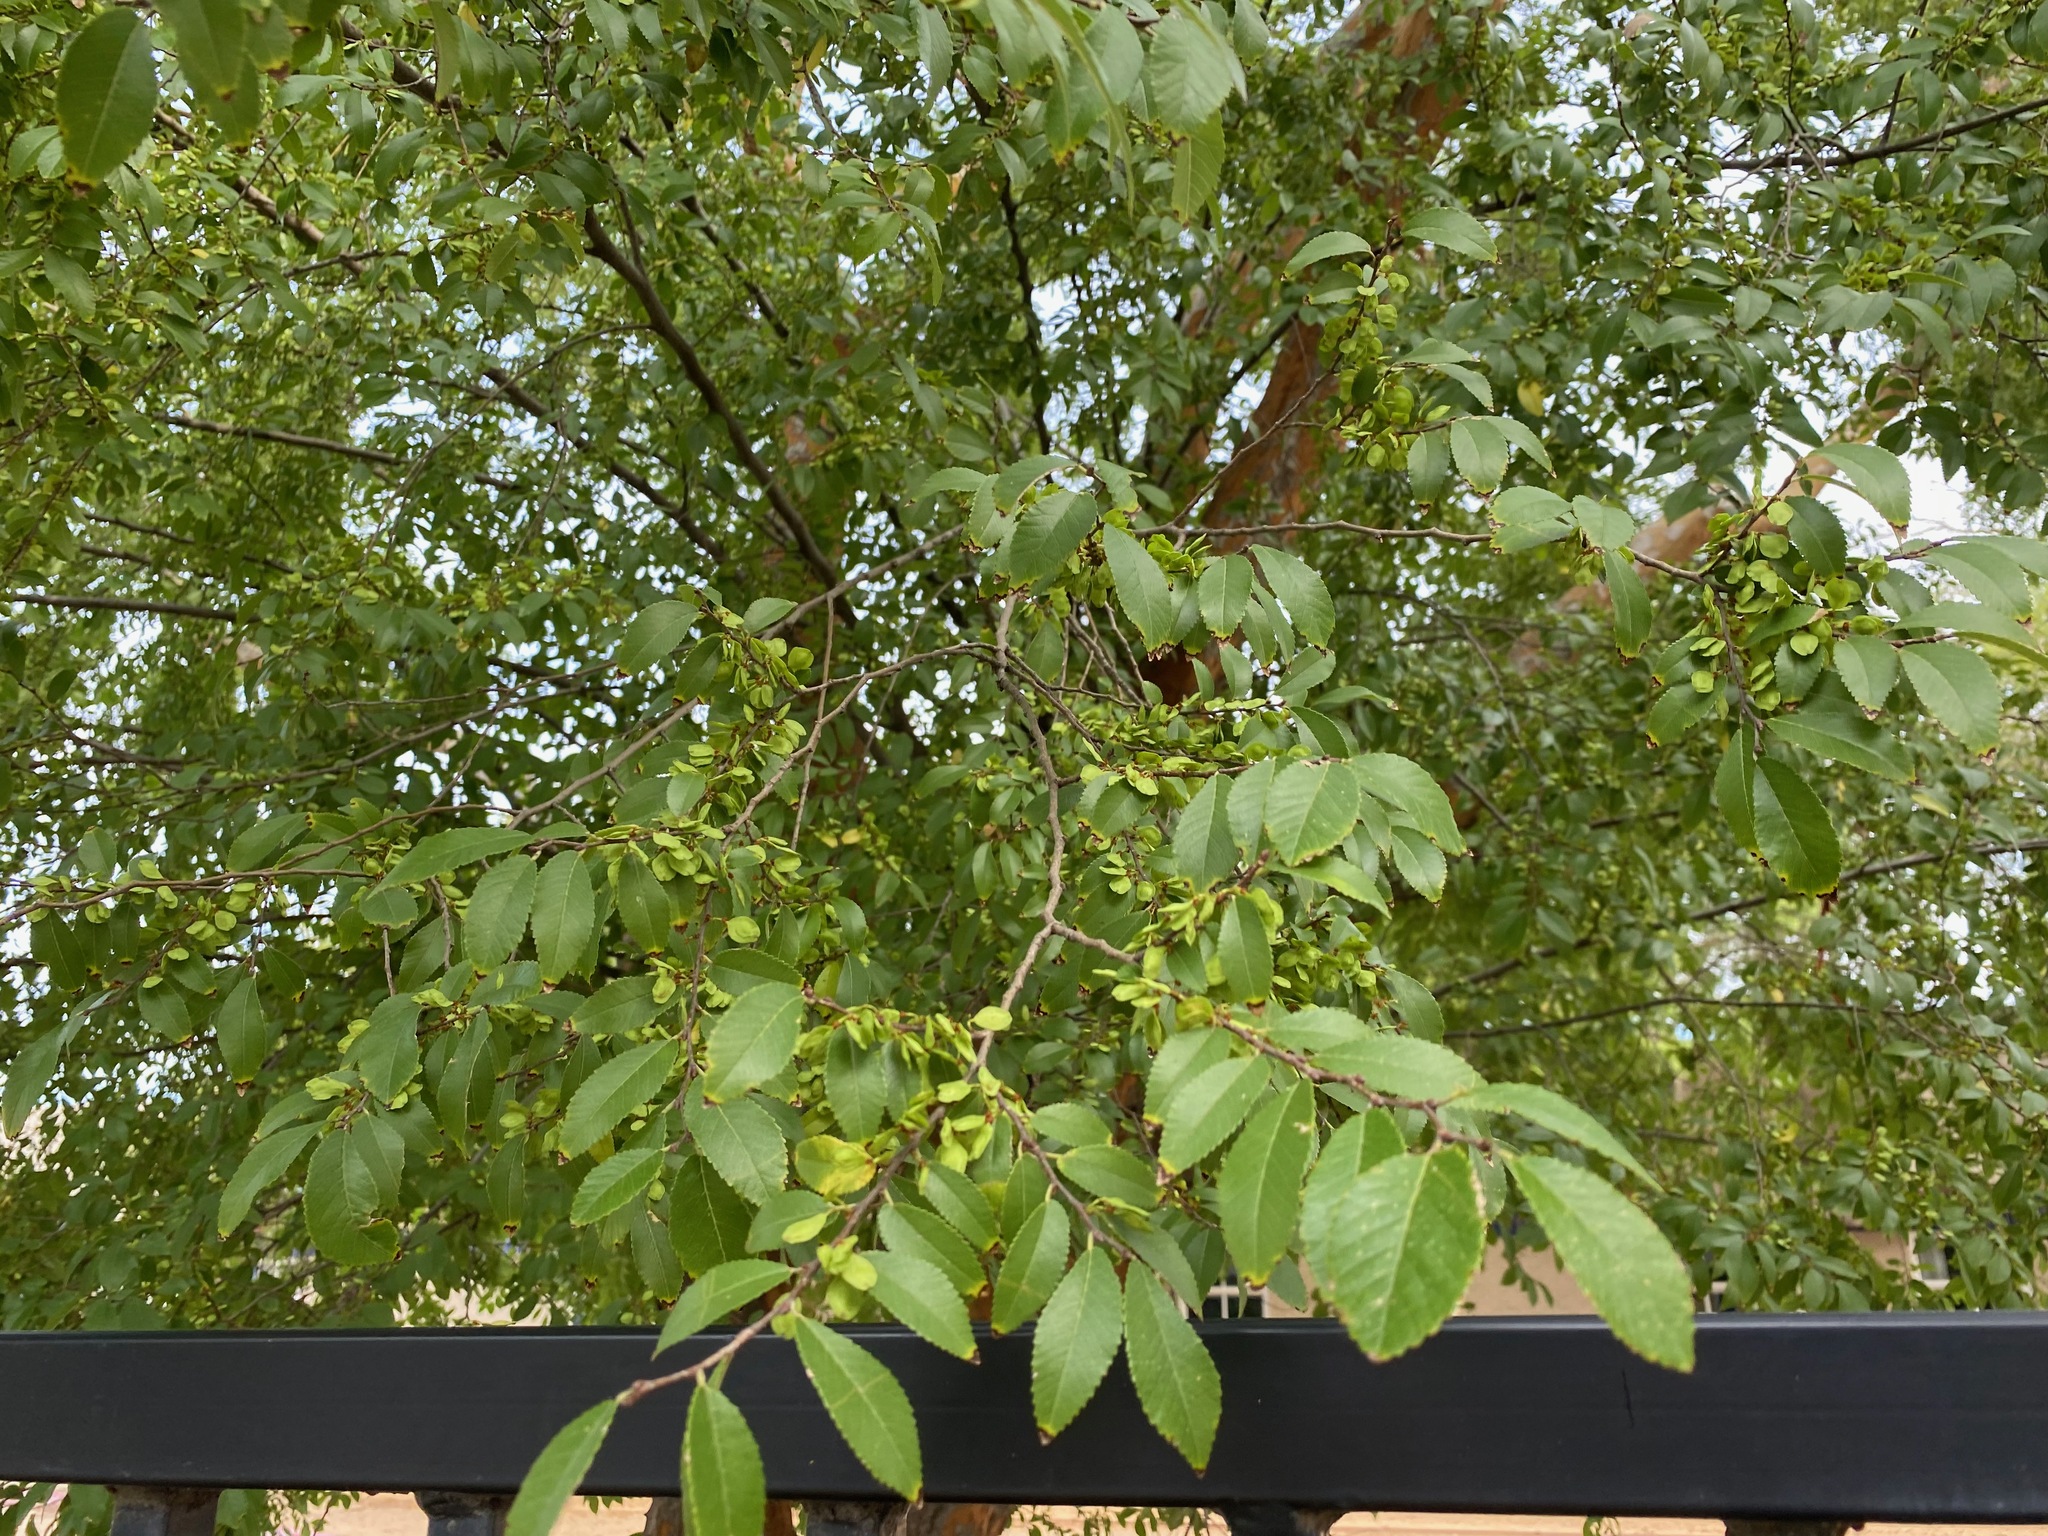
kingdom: Plantae
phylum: Tracheophyta
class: Magnoliopsida
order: Rosales
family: Ulmaceae
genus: Ulmus
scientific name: Ulmus parvifolia
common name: Chinese elm
